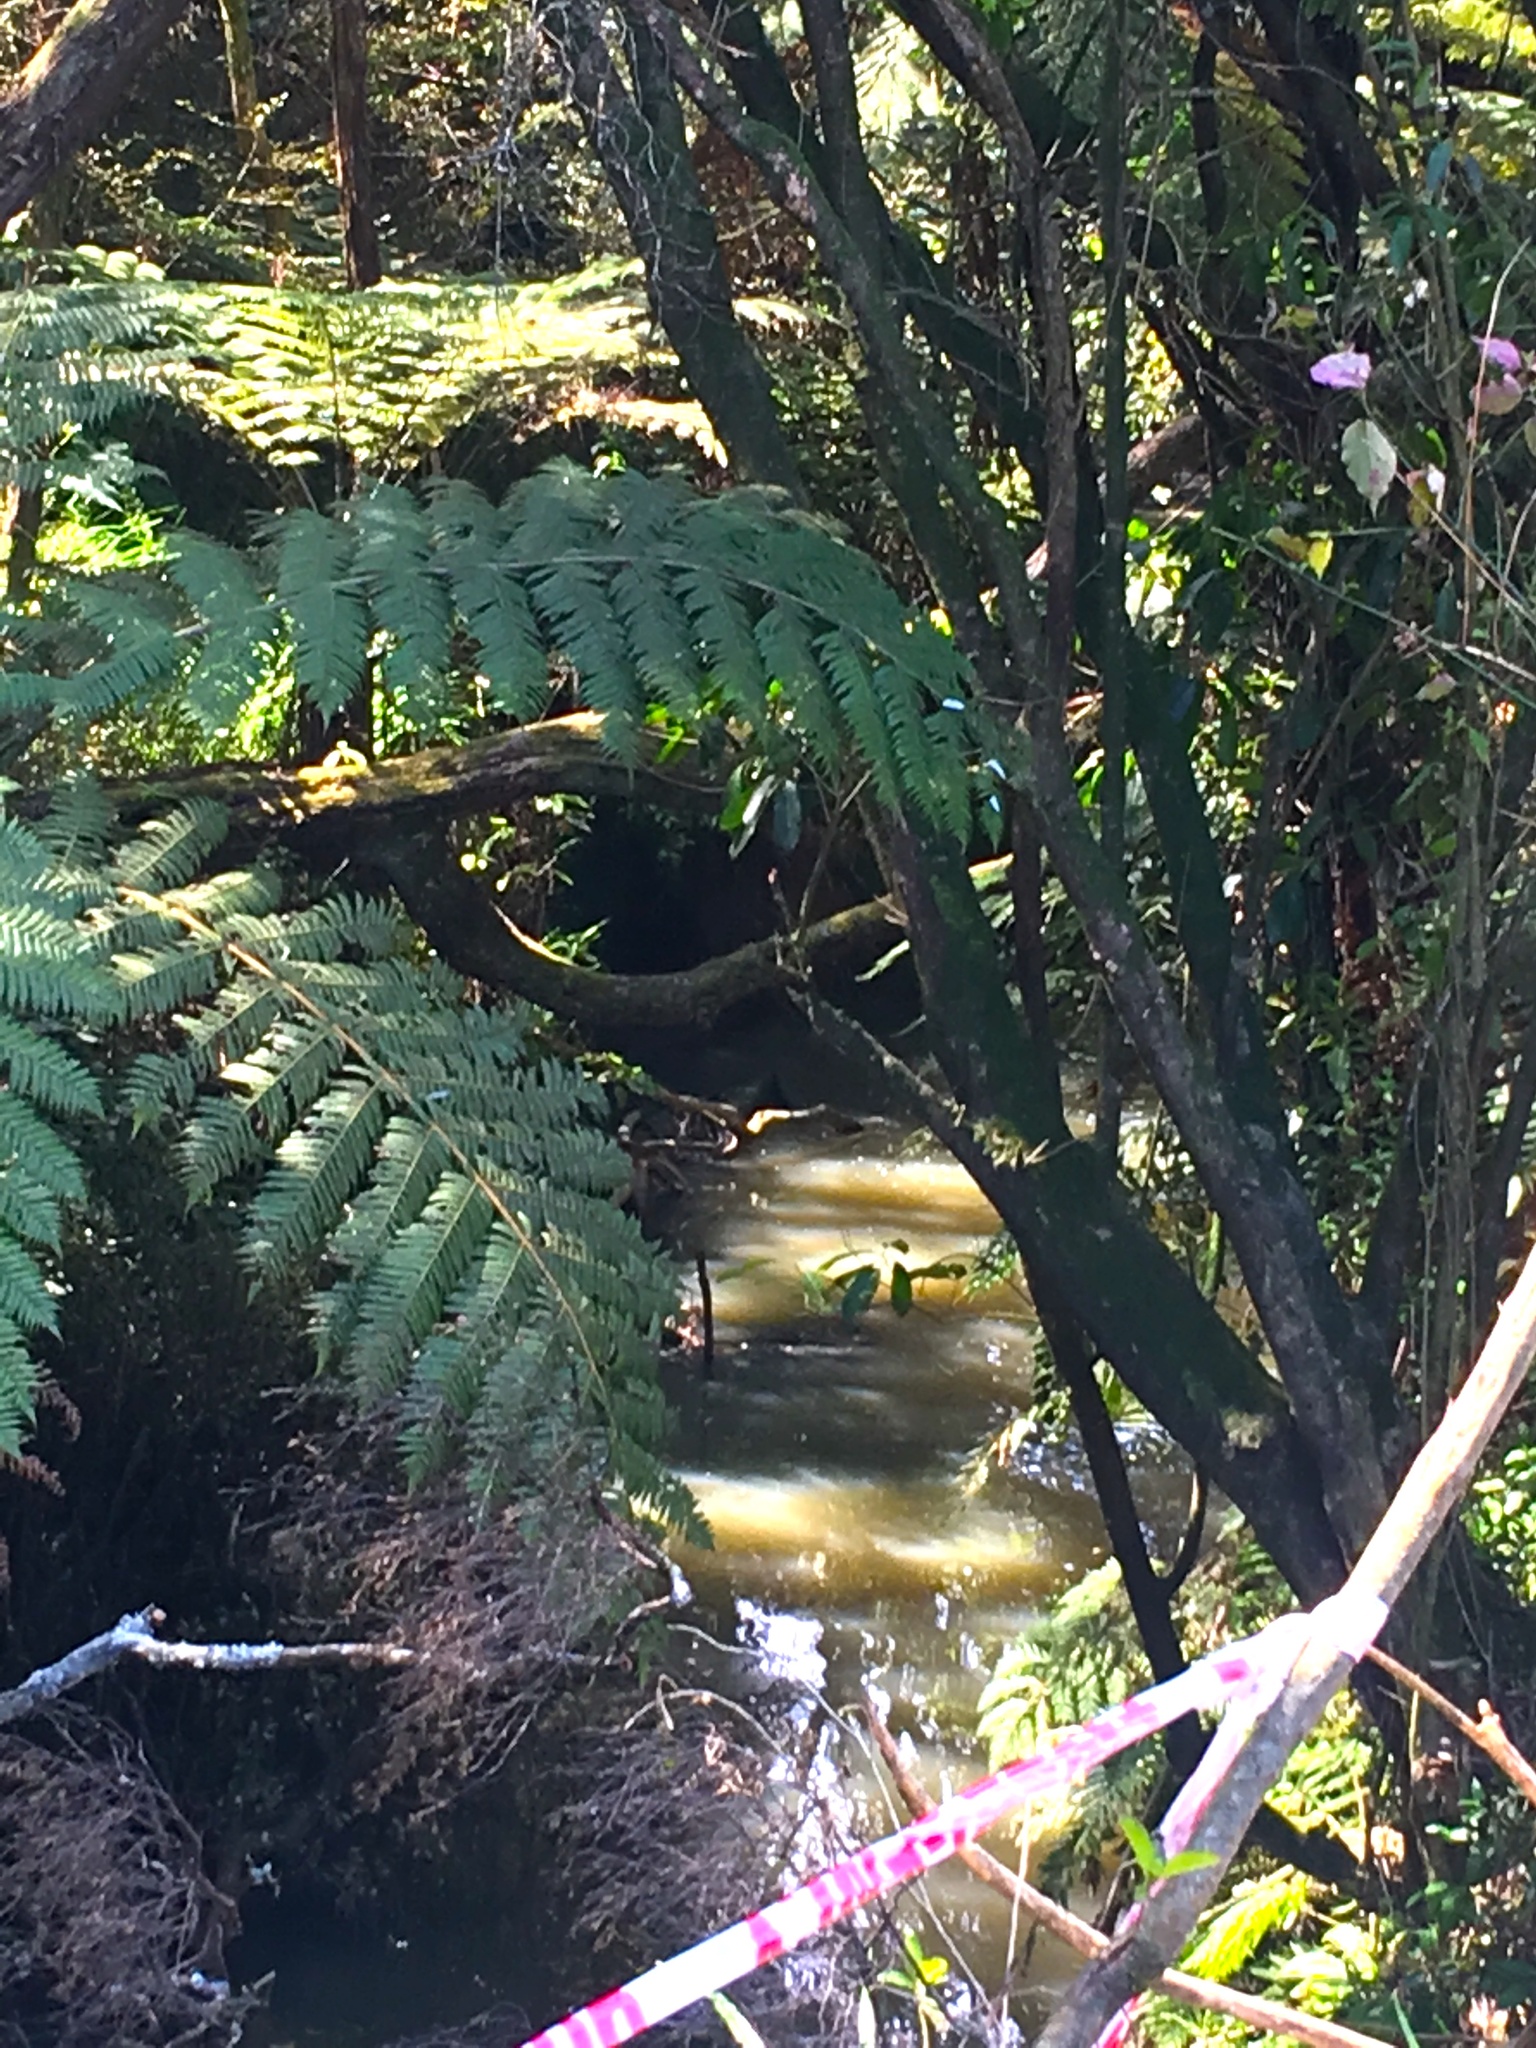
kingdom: Plantae
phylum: Tracheophyta
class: Polypodiopsida
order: Cyatheales
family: Cyatheaceae
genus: Alsophila
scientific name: Alsophila dealbata
